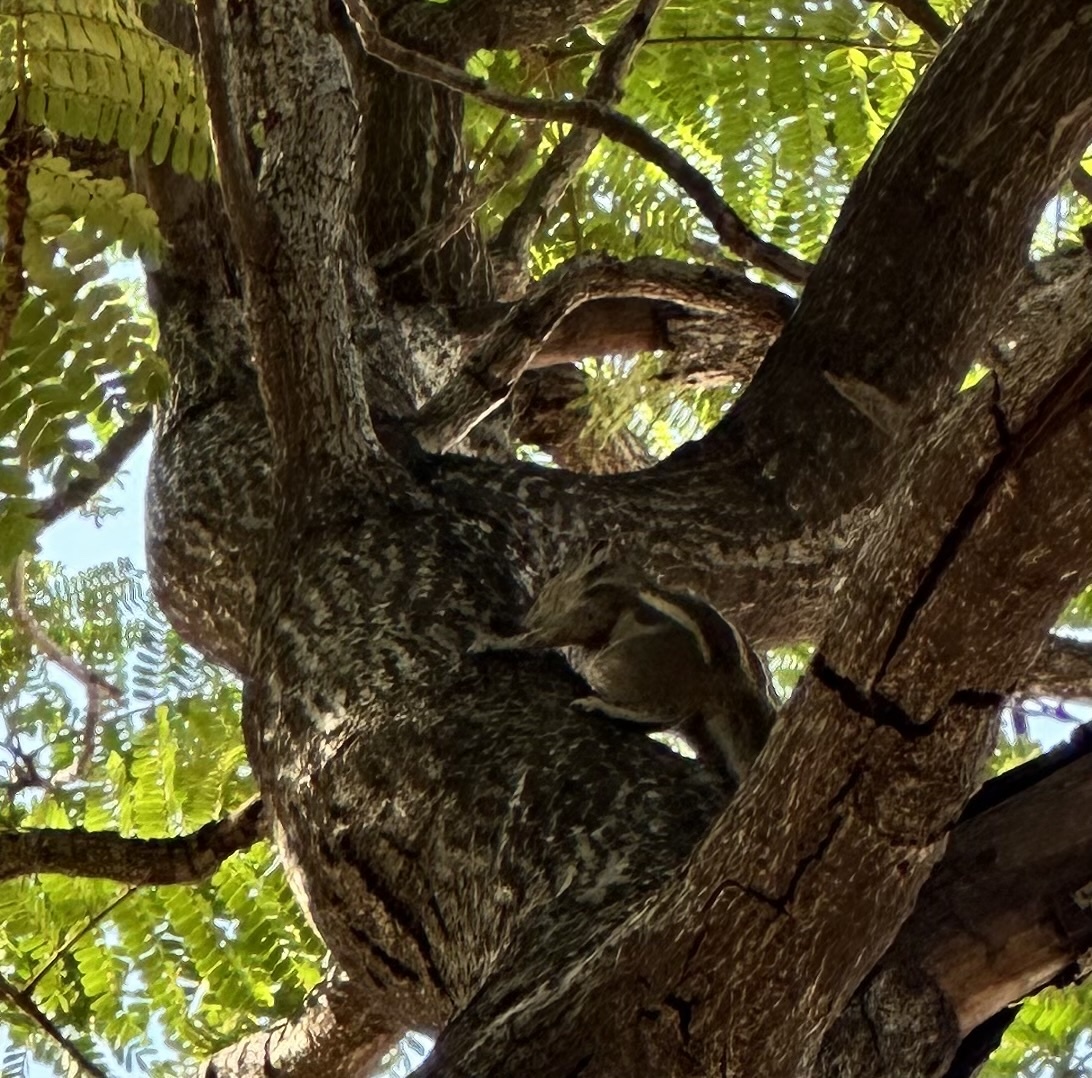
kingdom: Animalia
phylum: Chordata
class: Mammalia
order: Rodentia
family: Sciuridae
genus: Funambulus
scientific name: Funambulus palmarum
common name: Indian palm squirrel
